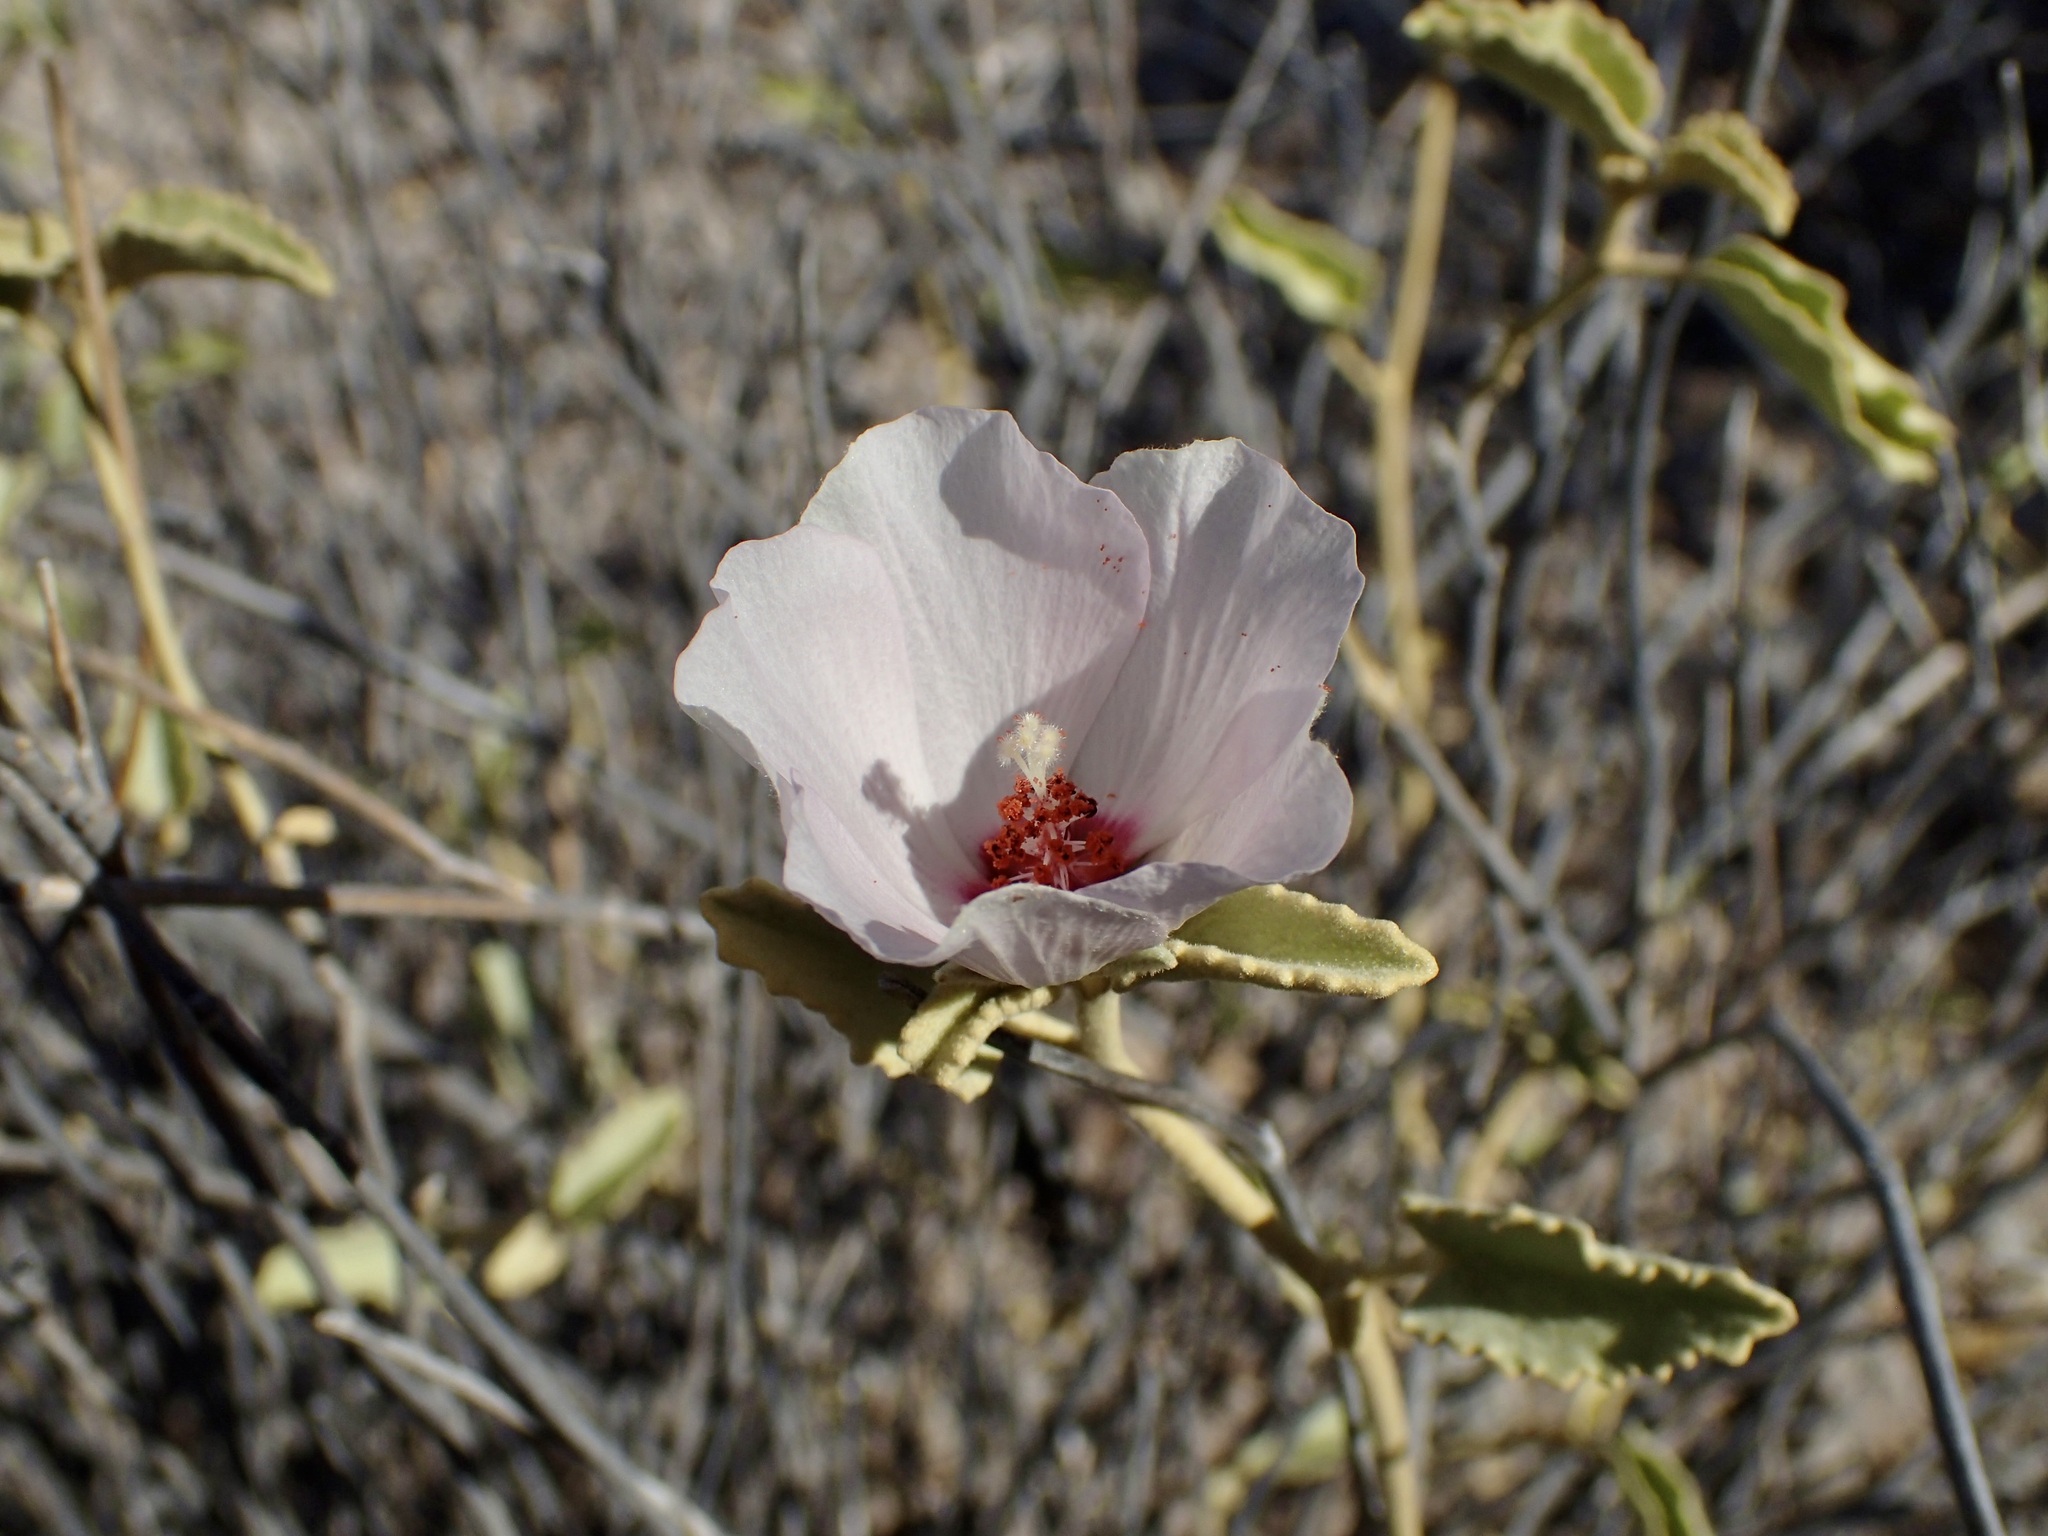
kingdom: Plantae
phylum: Tracheophyta
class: Magnoliopsida
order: Malvales
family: Malvaceae
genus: Hibiscus
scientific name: Hibiscus denudatus
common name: Paleface
